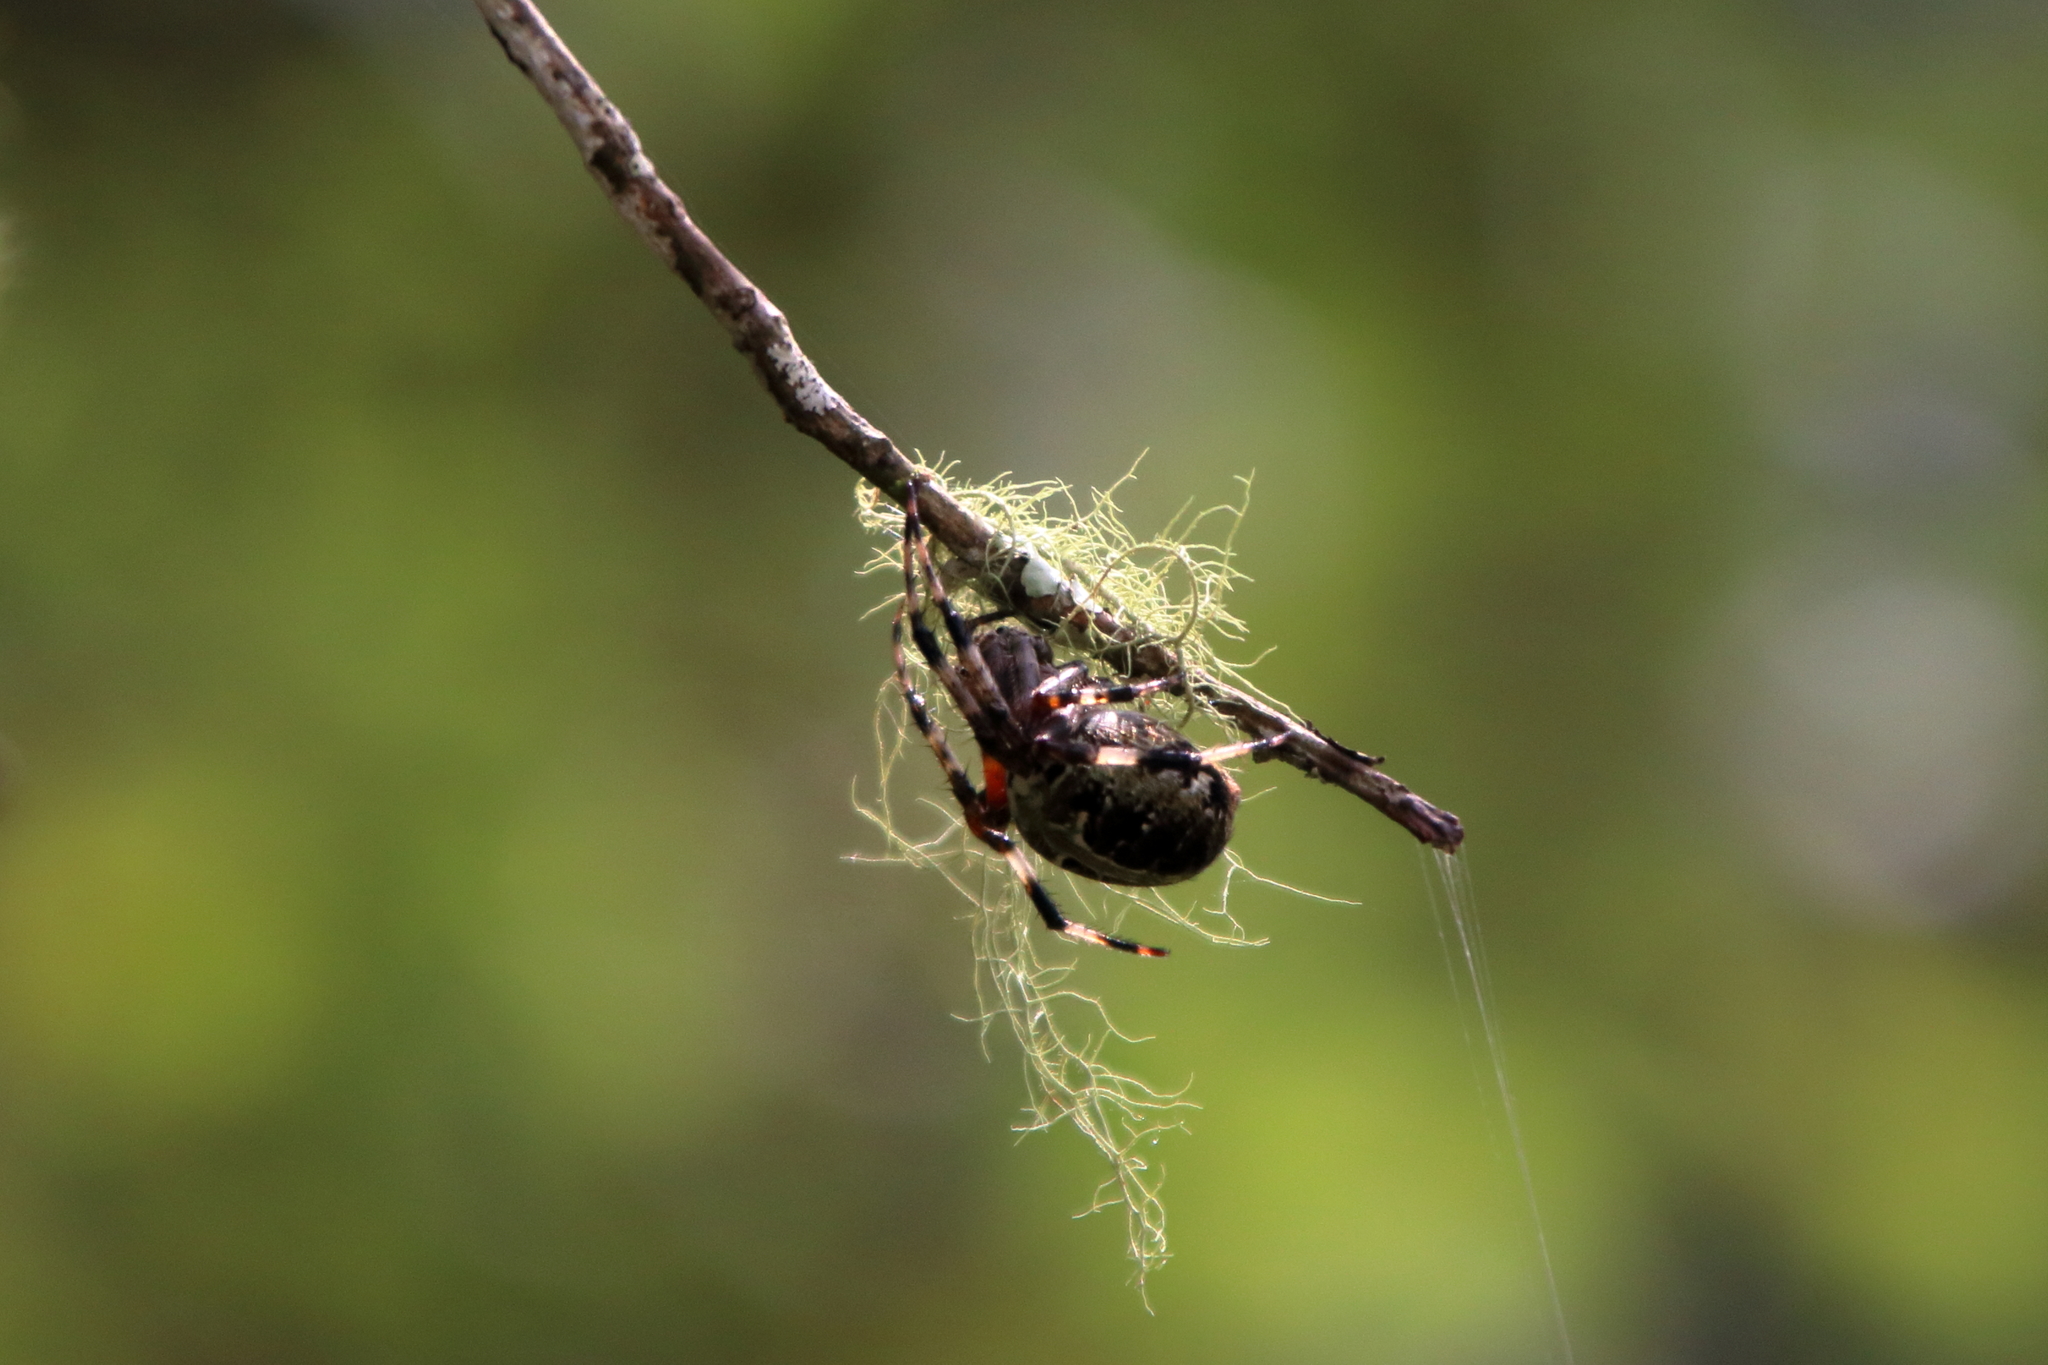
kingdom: Animalia
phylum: Arthropoda
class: Arachnida
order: Araneae
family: Araneidae
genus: Neoscona
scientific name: Neoscona domiciliorum
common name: Red-femured spotted orbweaver
